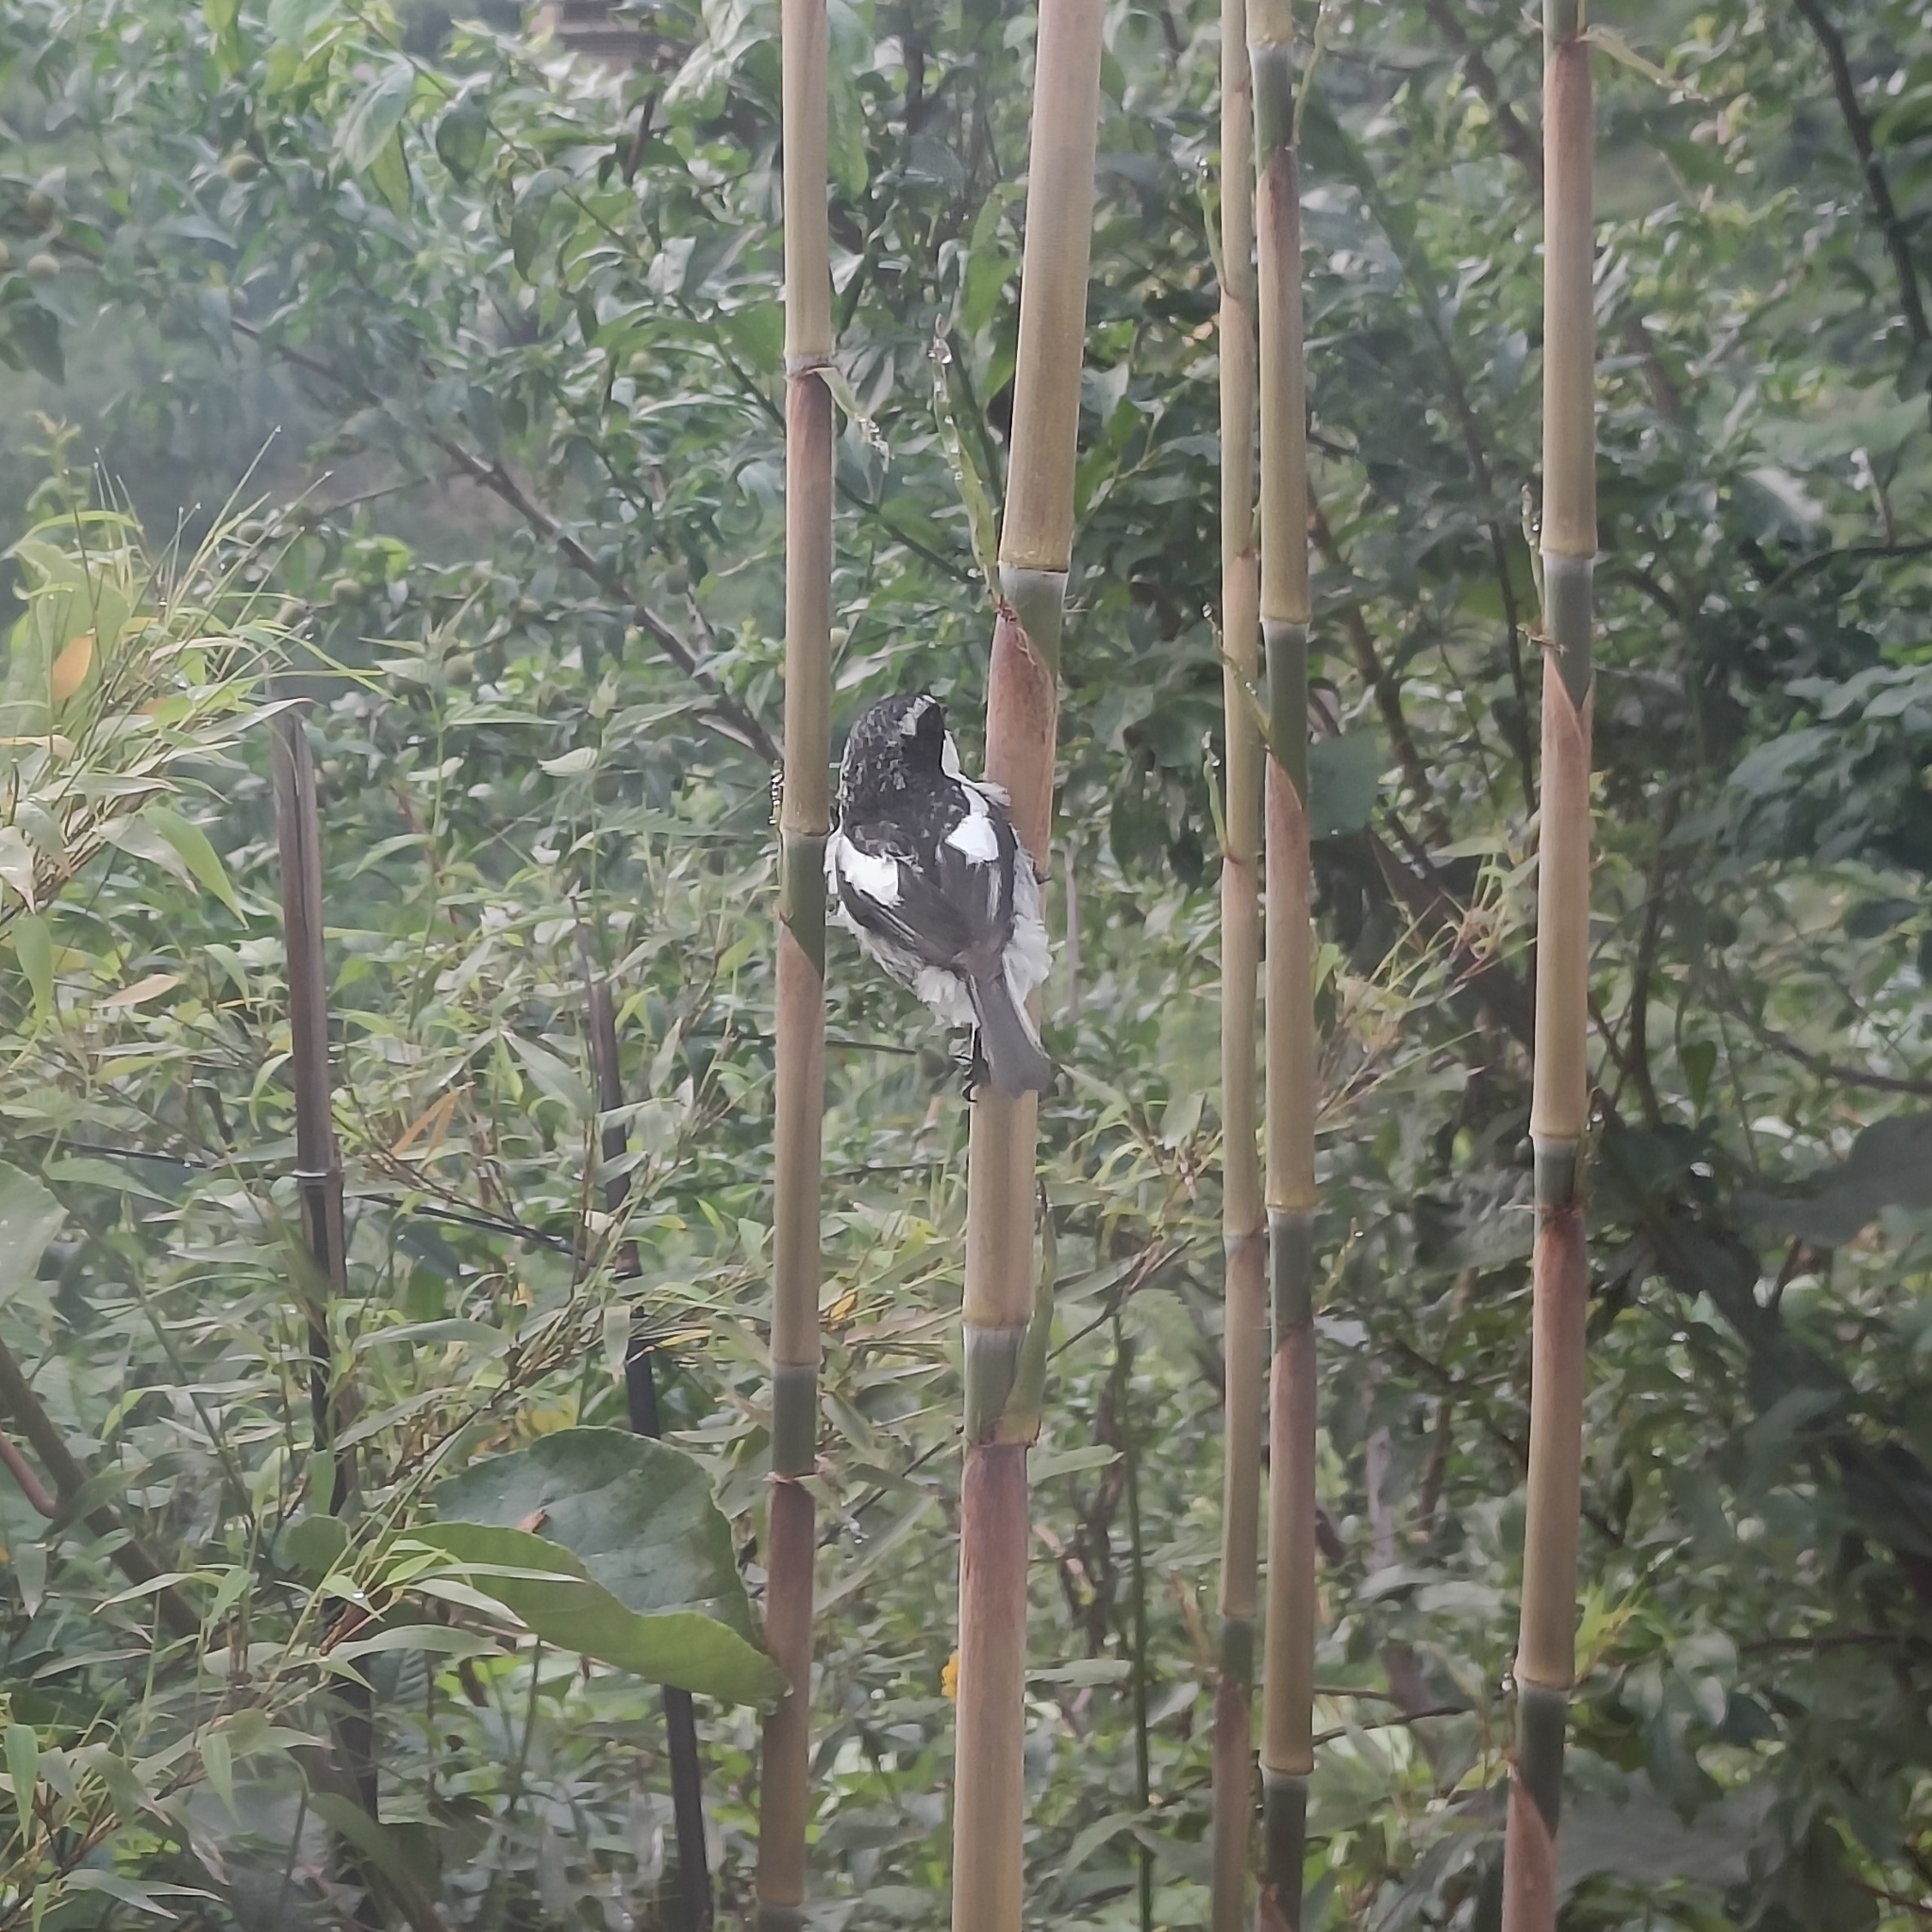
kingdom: Animalia
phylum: Chordata
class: Aves
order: Passeriformes
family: Muscicapidae
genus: Saxicola
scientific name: Saxicola ferreus
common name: Grey bush chat
